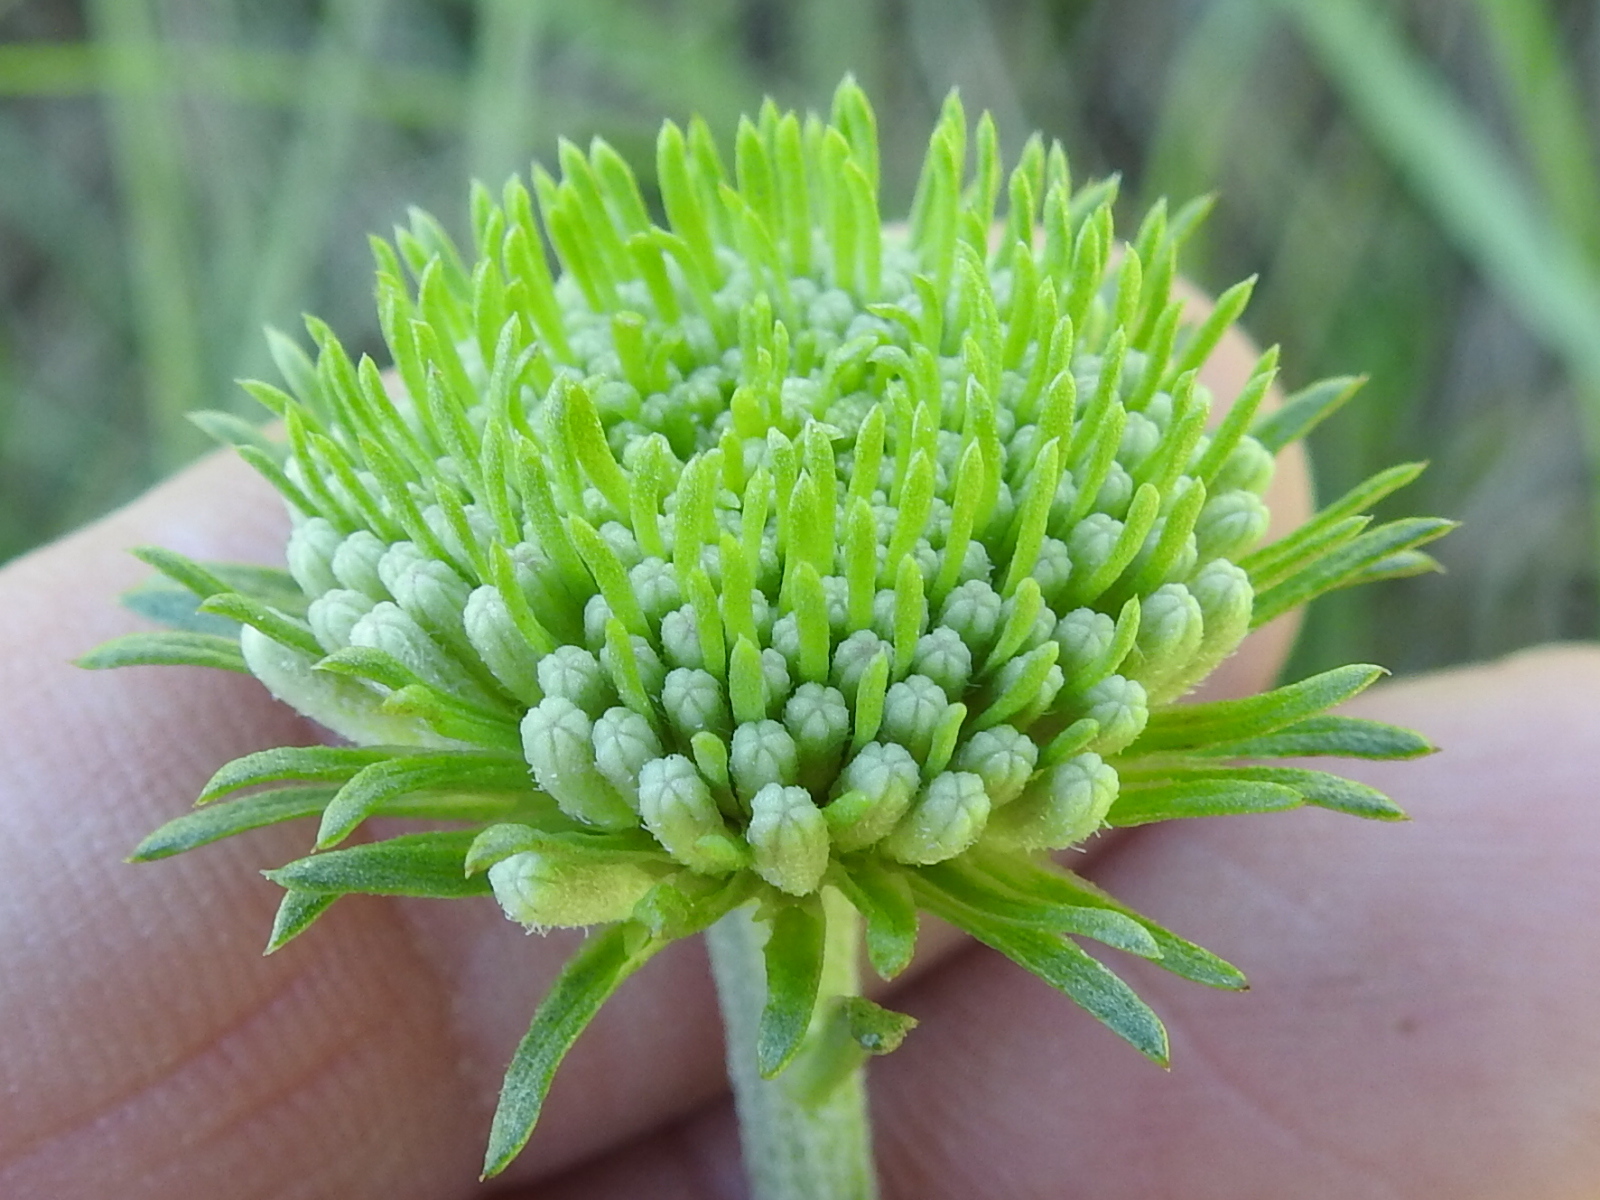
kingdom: Plantae
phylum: Tracheophyta
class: Magnoliopsida
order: Asterales
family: Asteraceae
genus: Marshallia
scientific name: Marshallia caespitosa
